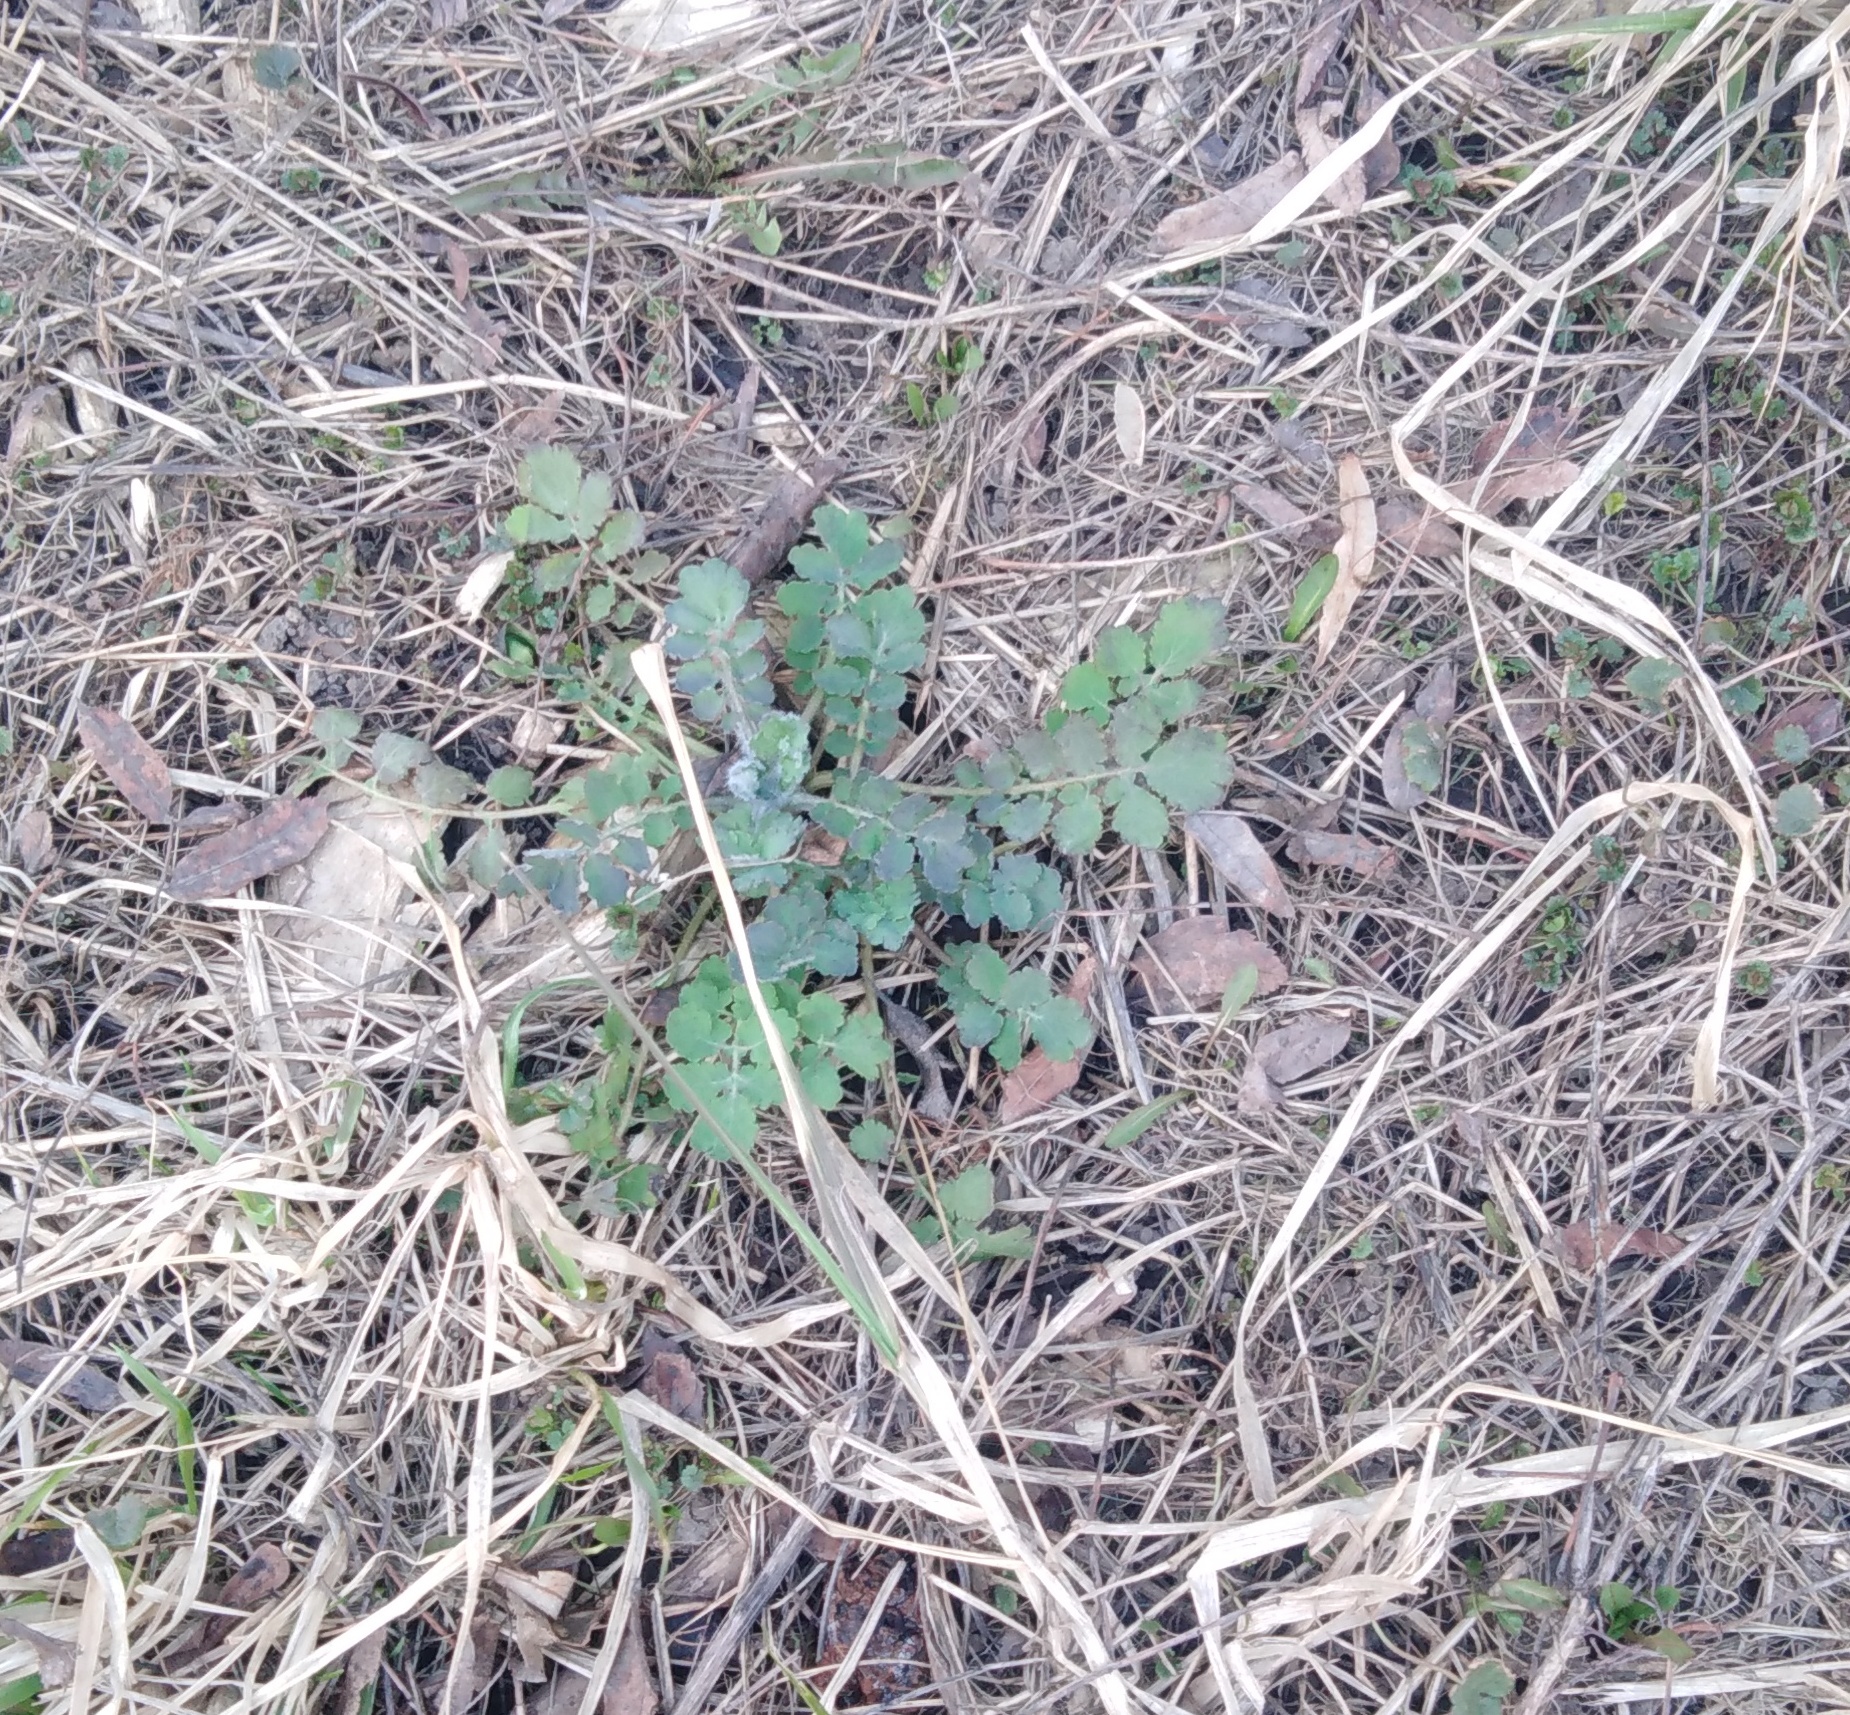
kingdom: Plantae
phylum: Tracheophyta
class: Magnoliopsida
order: Ranunculales
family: Papaveraceae
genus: Chelidonium
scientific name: Chelidonium majus
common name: Greater celandine
